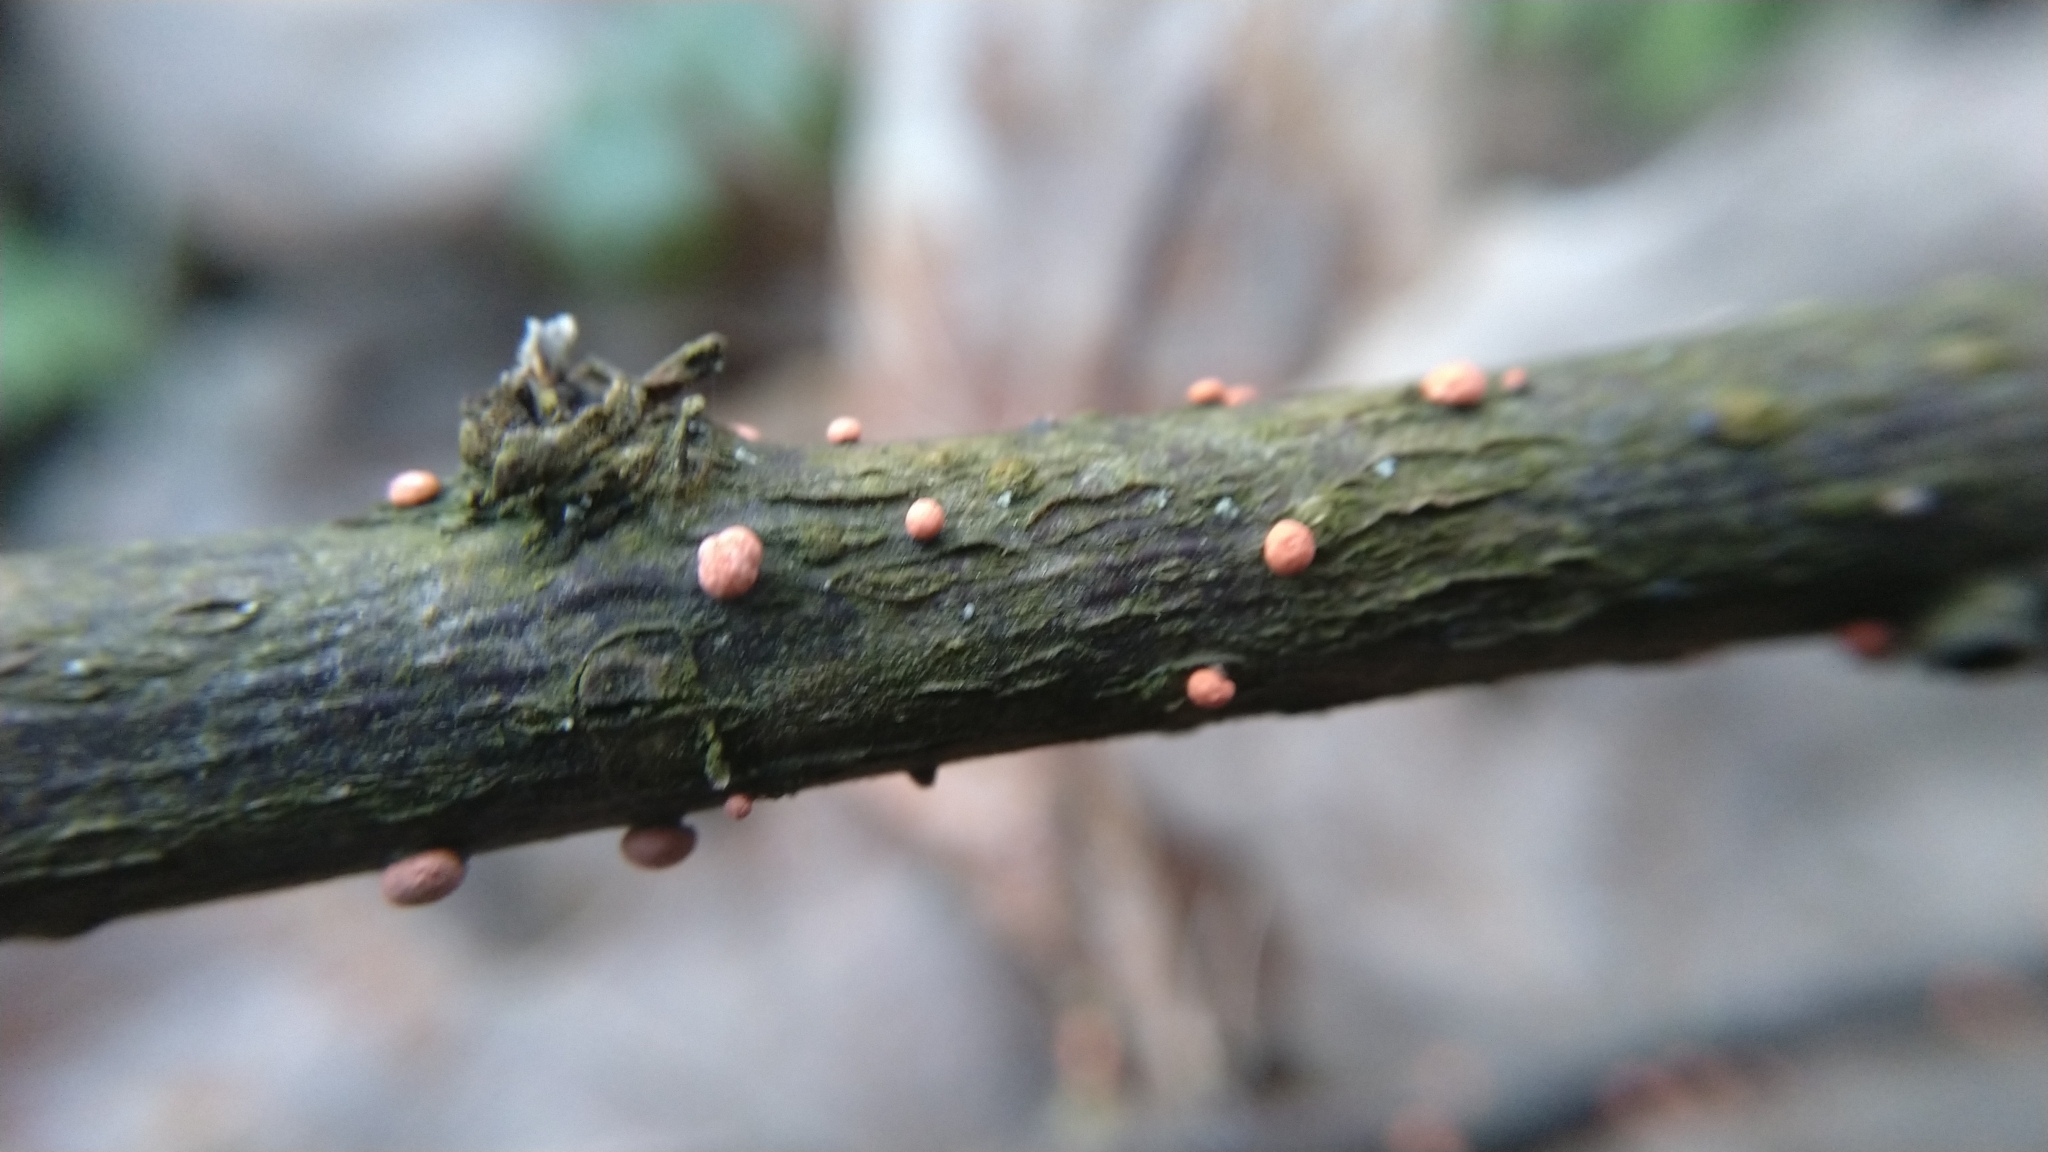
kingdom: Fungi
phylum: Ascomycota
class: Sordariomycetes
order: Hypocreales
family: Nectriaceae
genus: Nectria
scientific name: Nectria cinnabarina
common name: Coral spot
